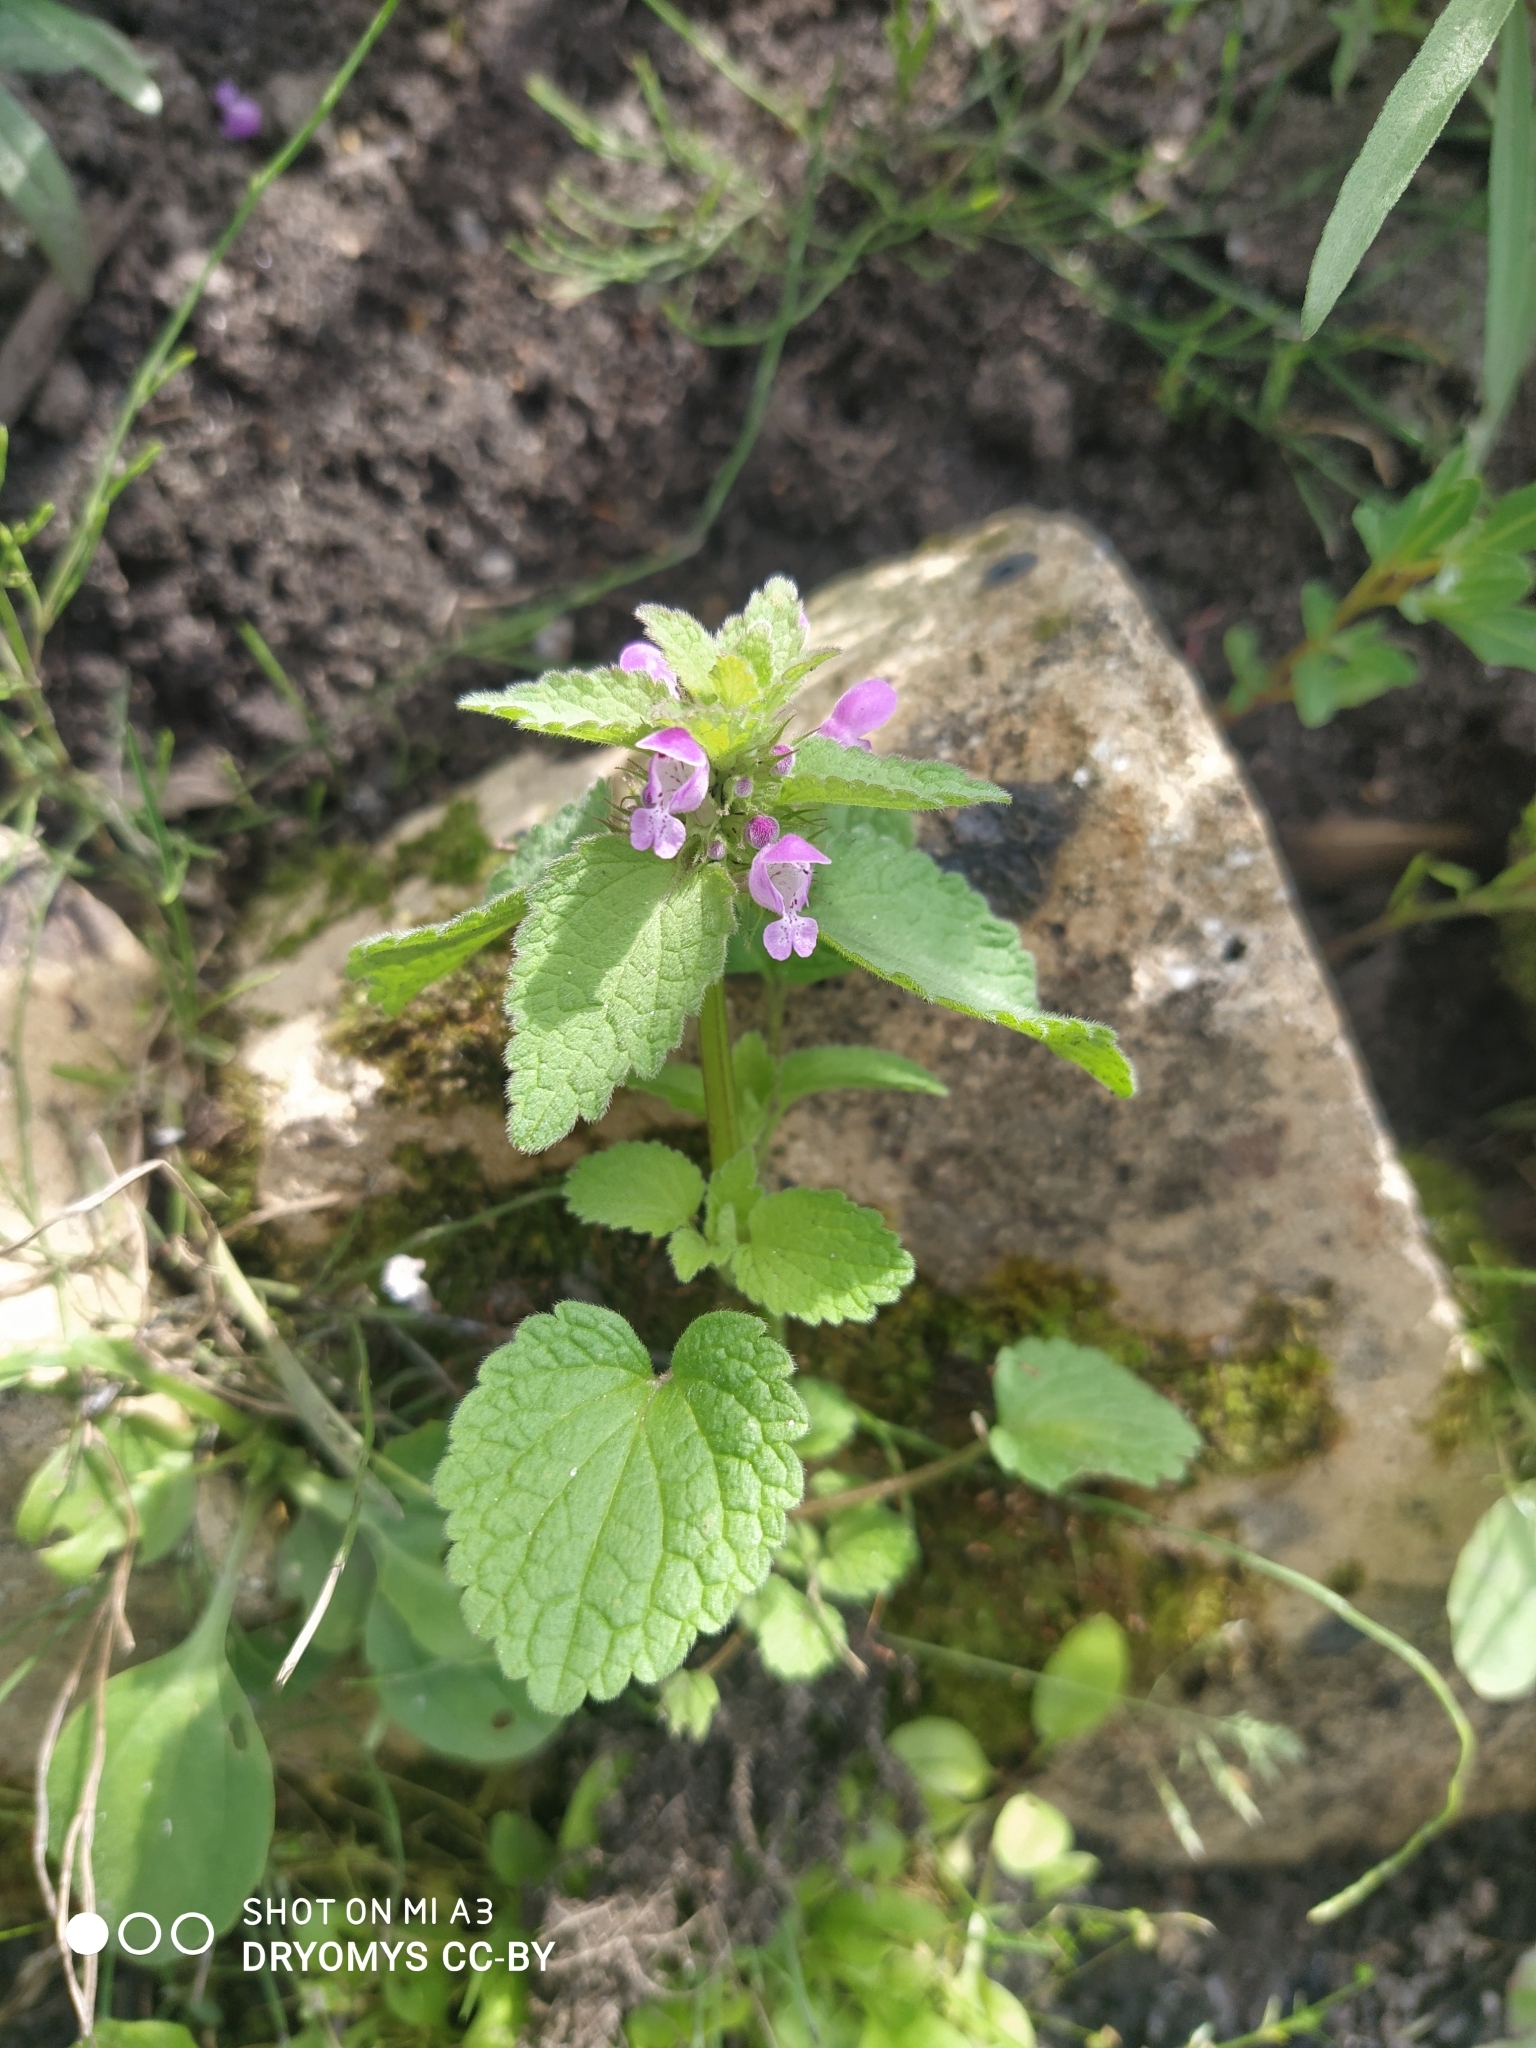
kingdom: Plantae
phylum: Tracheophyta
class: Magnoliopsida
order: Lamiales
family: Lamiaceae
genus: Lamium
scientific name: Lamium purpureum
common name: Red dead-nettle
